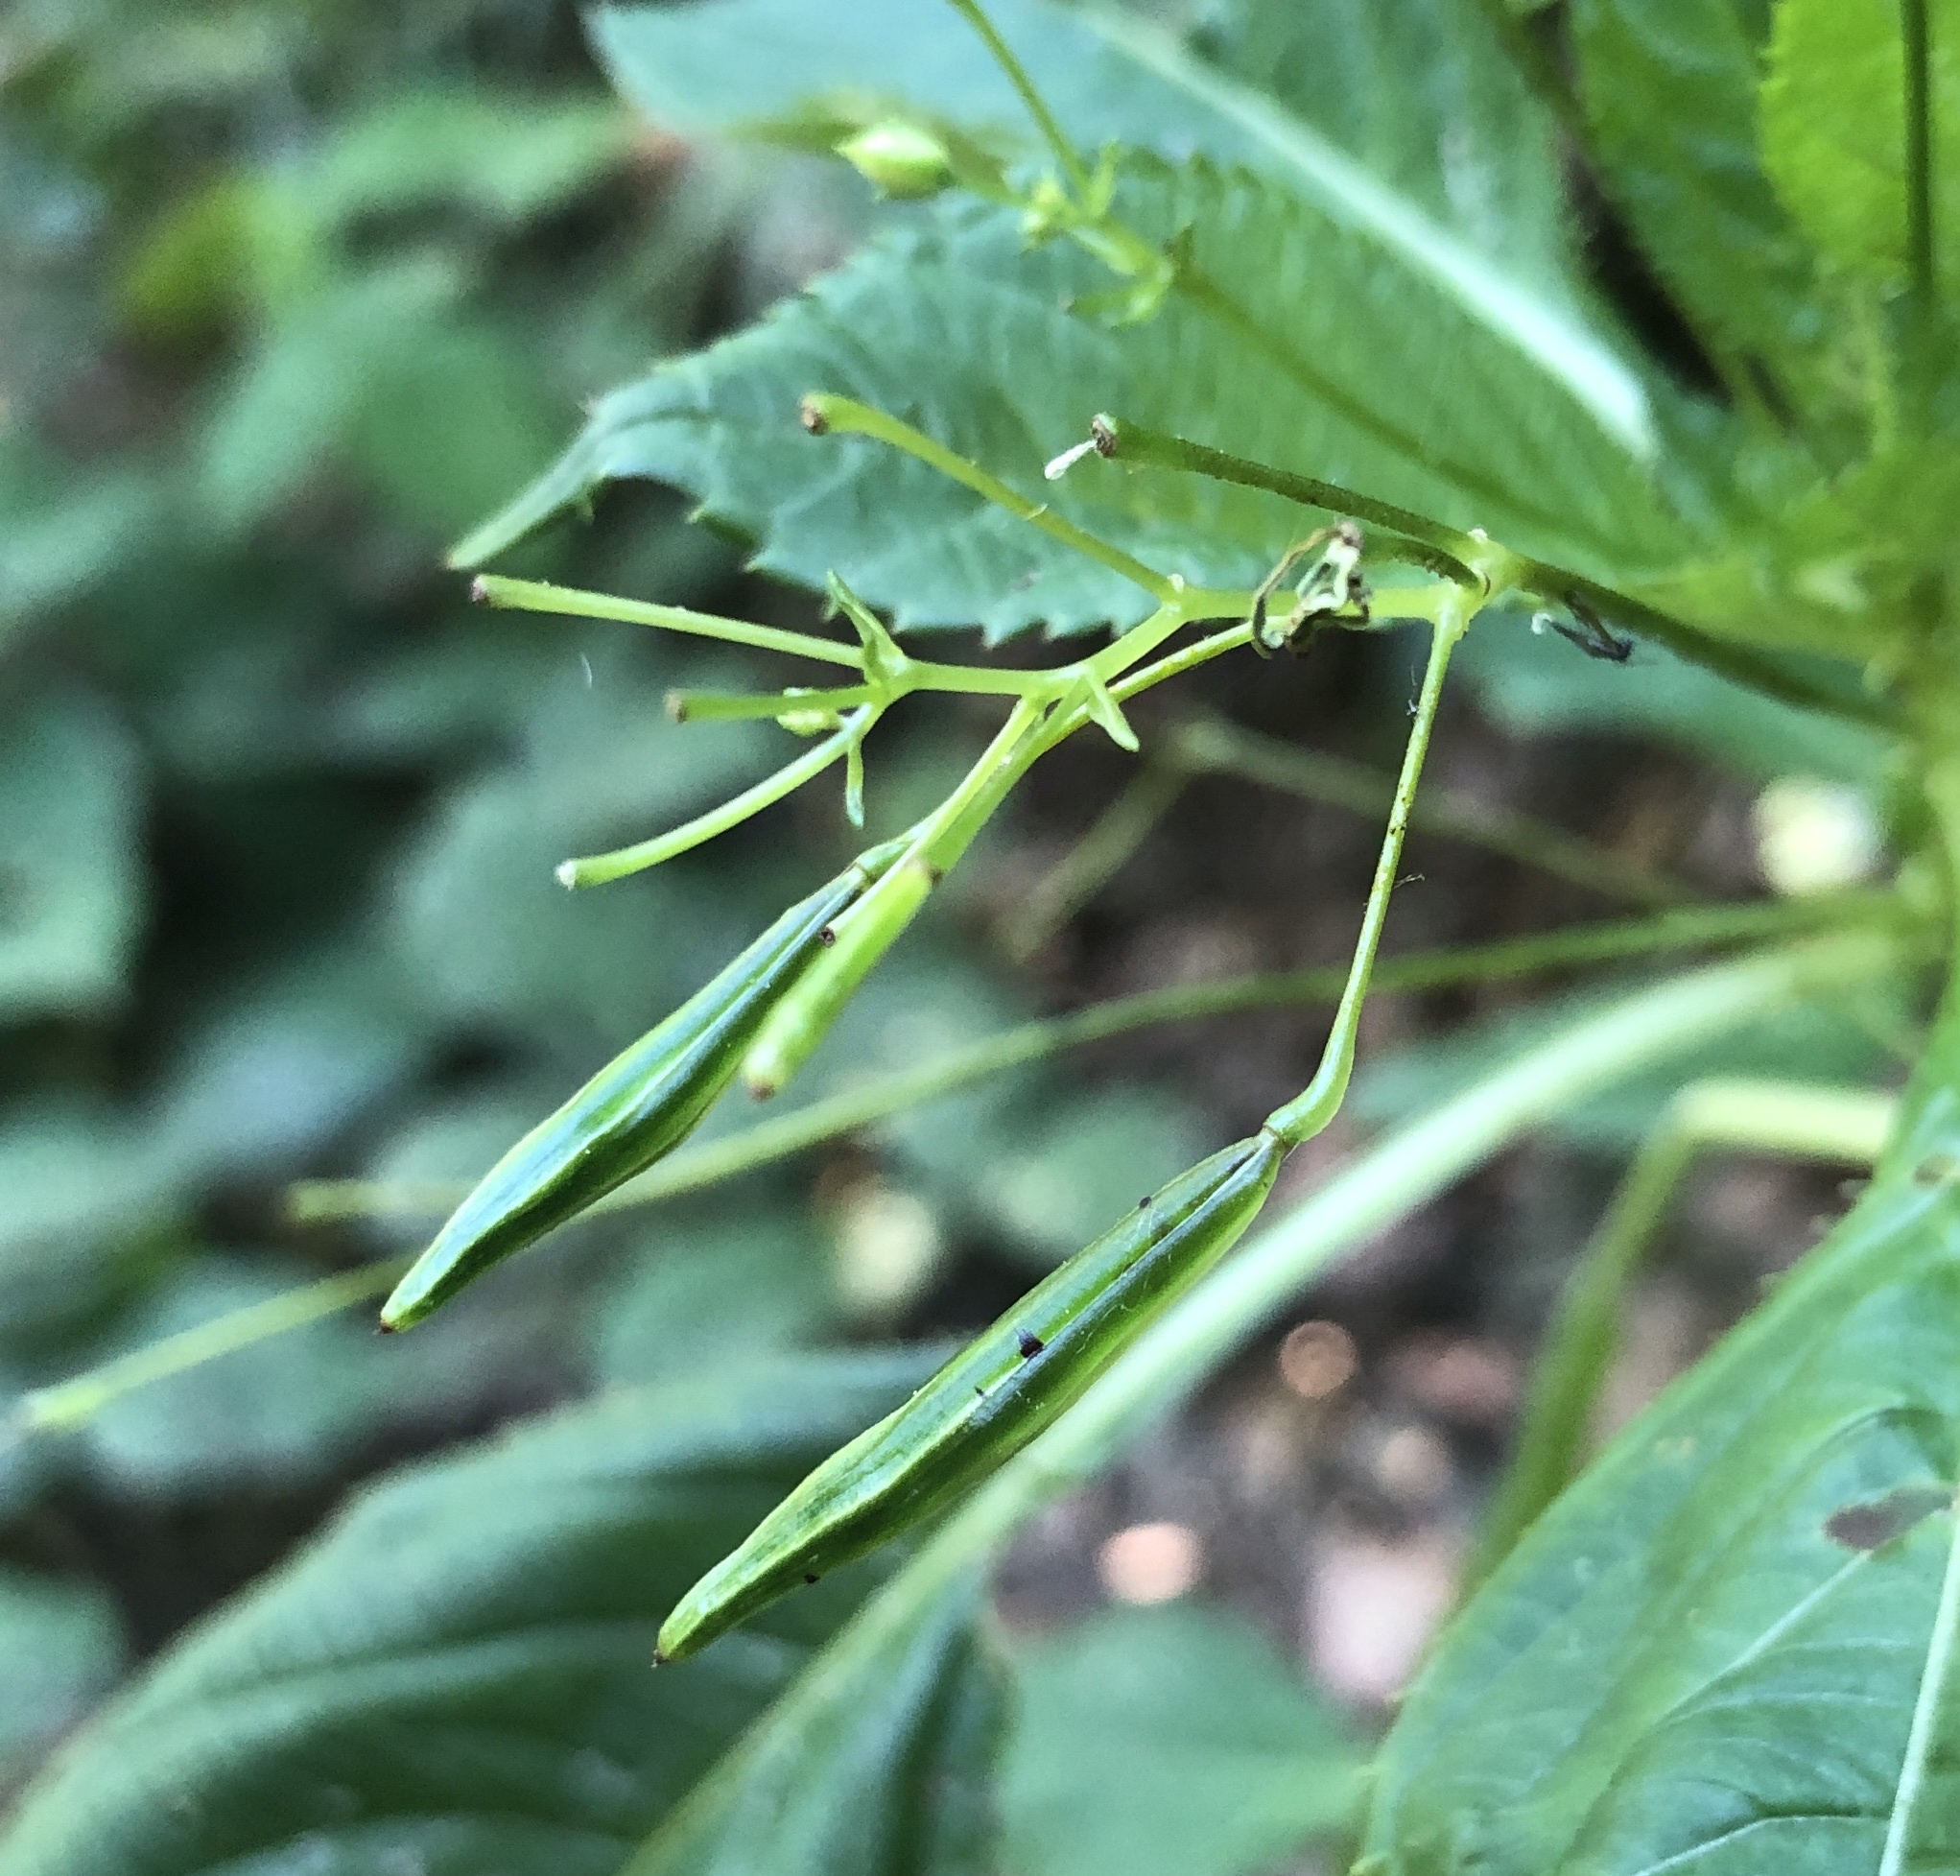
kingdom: Plantae
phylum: Tracheophyta
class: Magnoliopsida
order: Ericales
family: Balsaminaceae
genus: Impatiens
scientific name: Impatiens parviflora
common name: Small balsam
